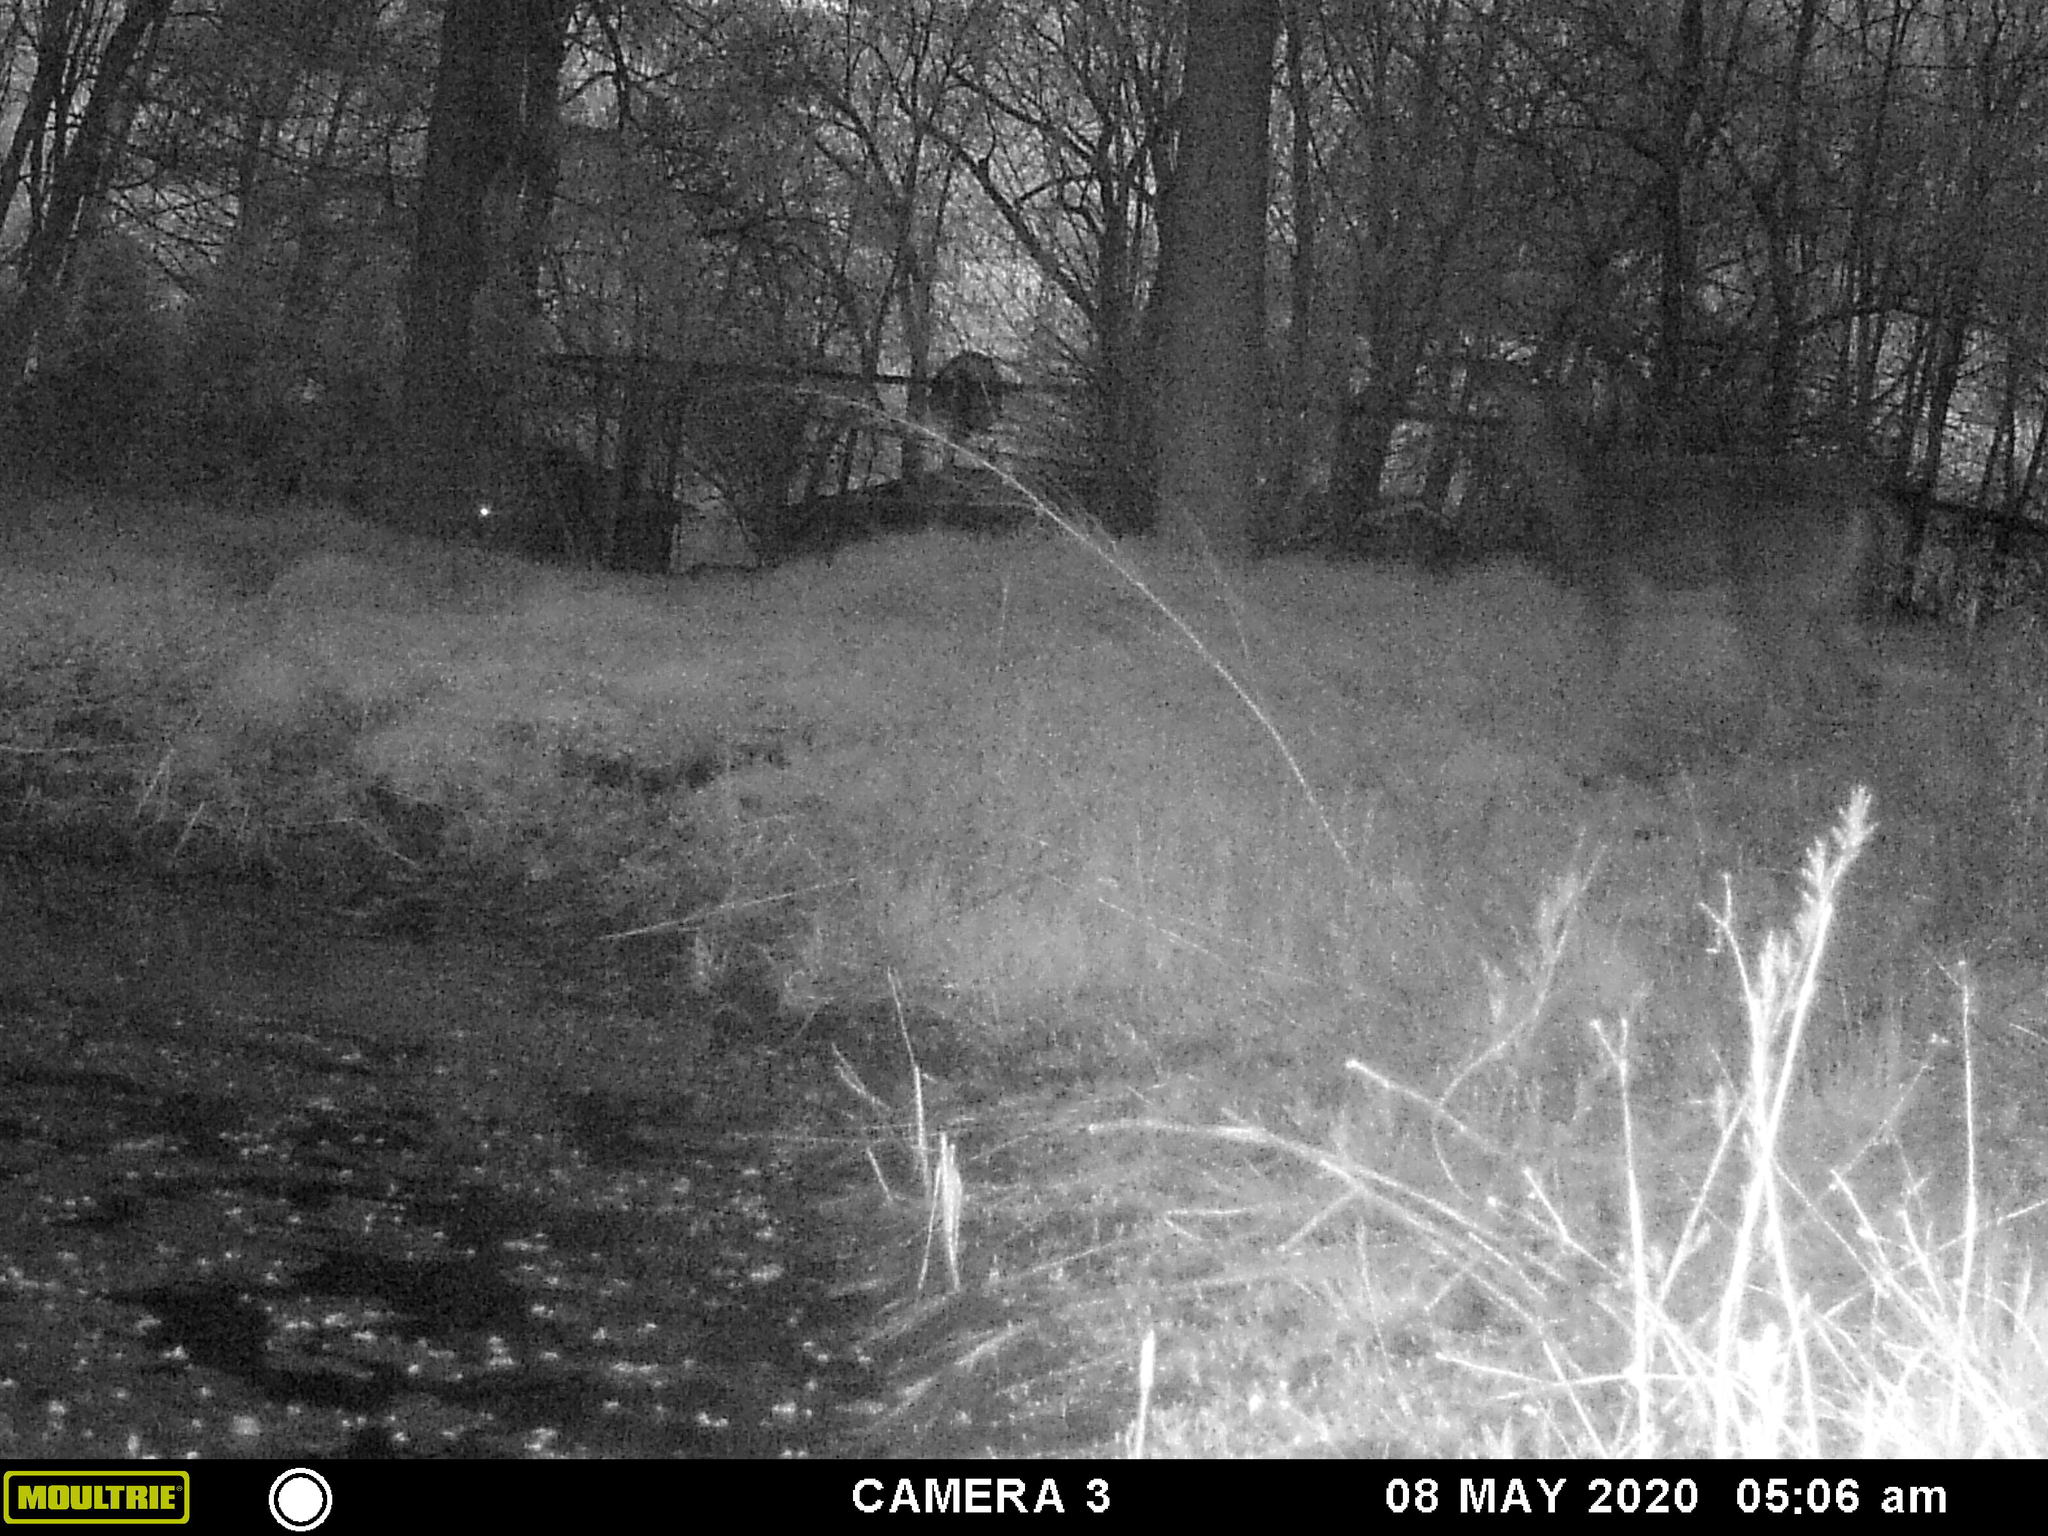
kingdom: Animalia
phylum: Chordata
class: Mammalia
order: Artiodactyla
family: Cervidae
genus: Odocoileus
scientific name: Odocoileus virginianus
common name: White-tailed deer
